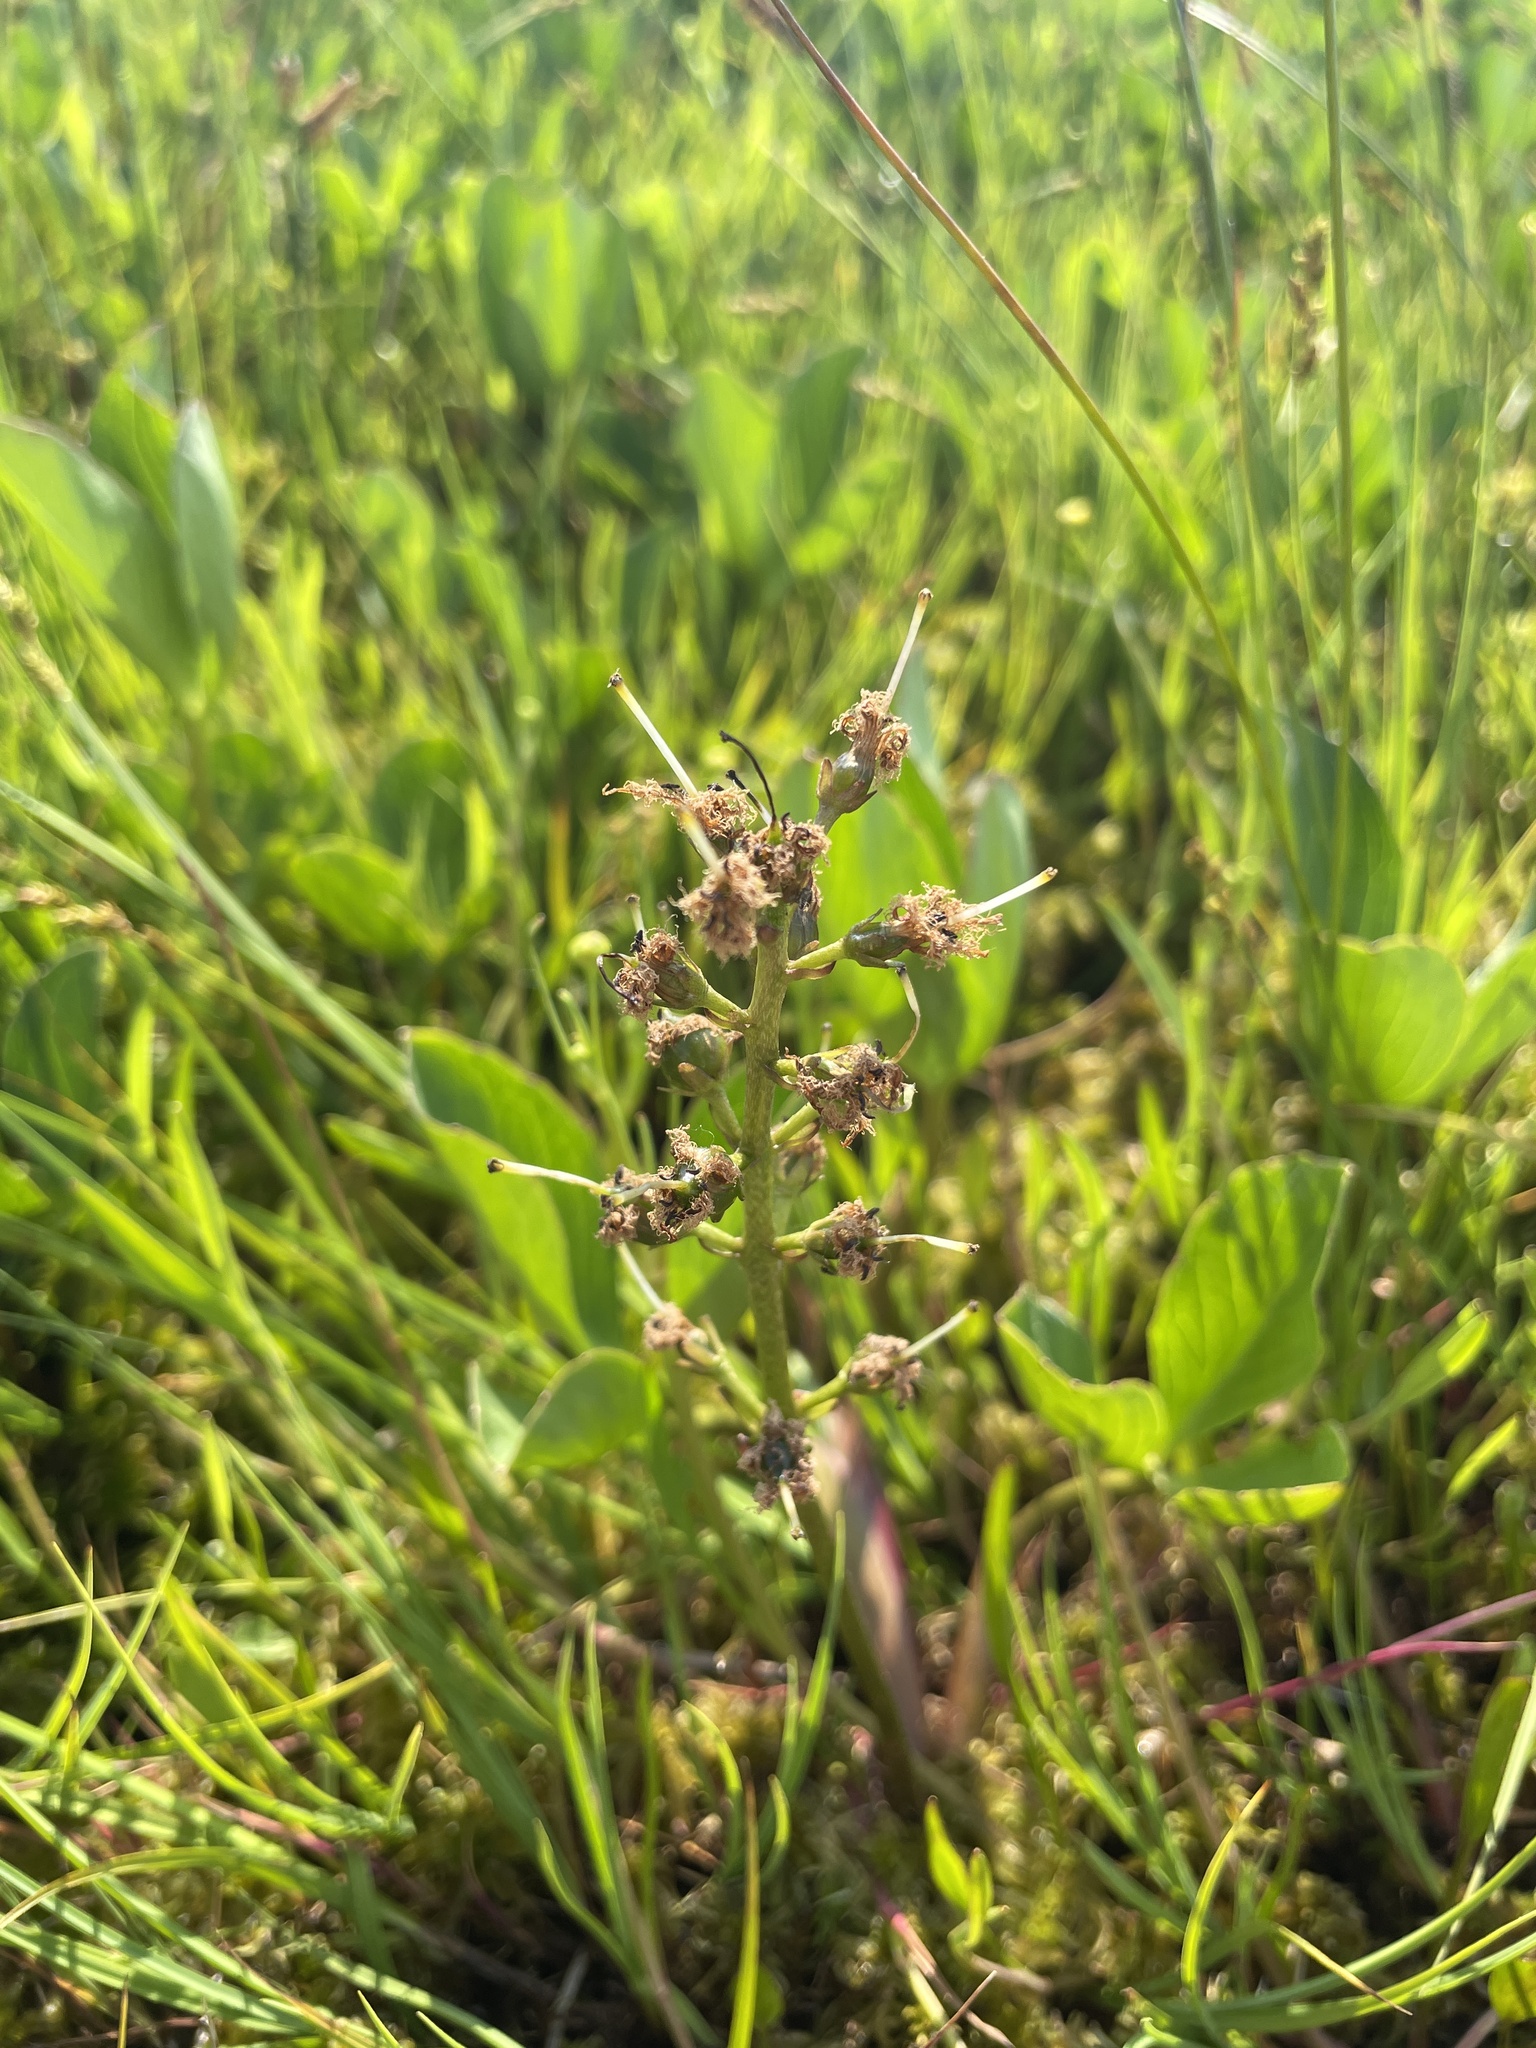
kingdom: Plantae
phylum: Tracheophyta
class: Magnoliopsida
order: Asterales
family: Menyanthaceae
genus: Menyanthes
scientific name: Menyanthes trifoliata
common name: Bogbean
